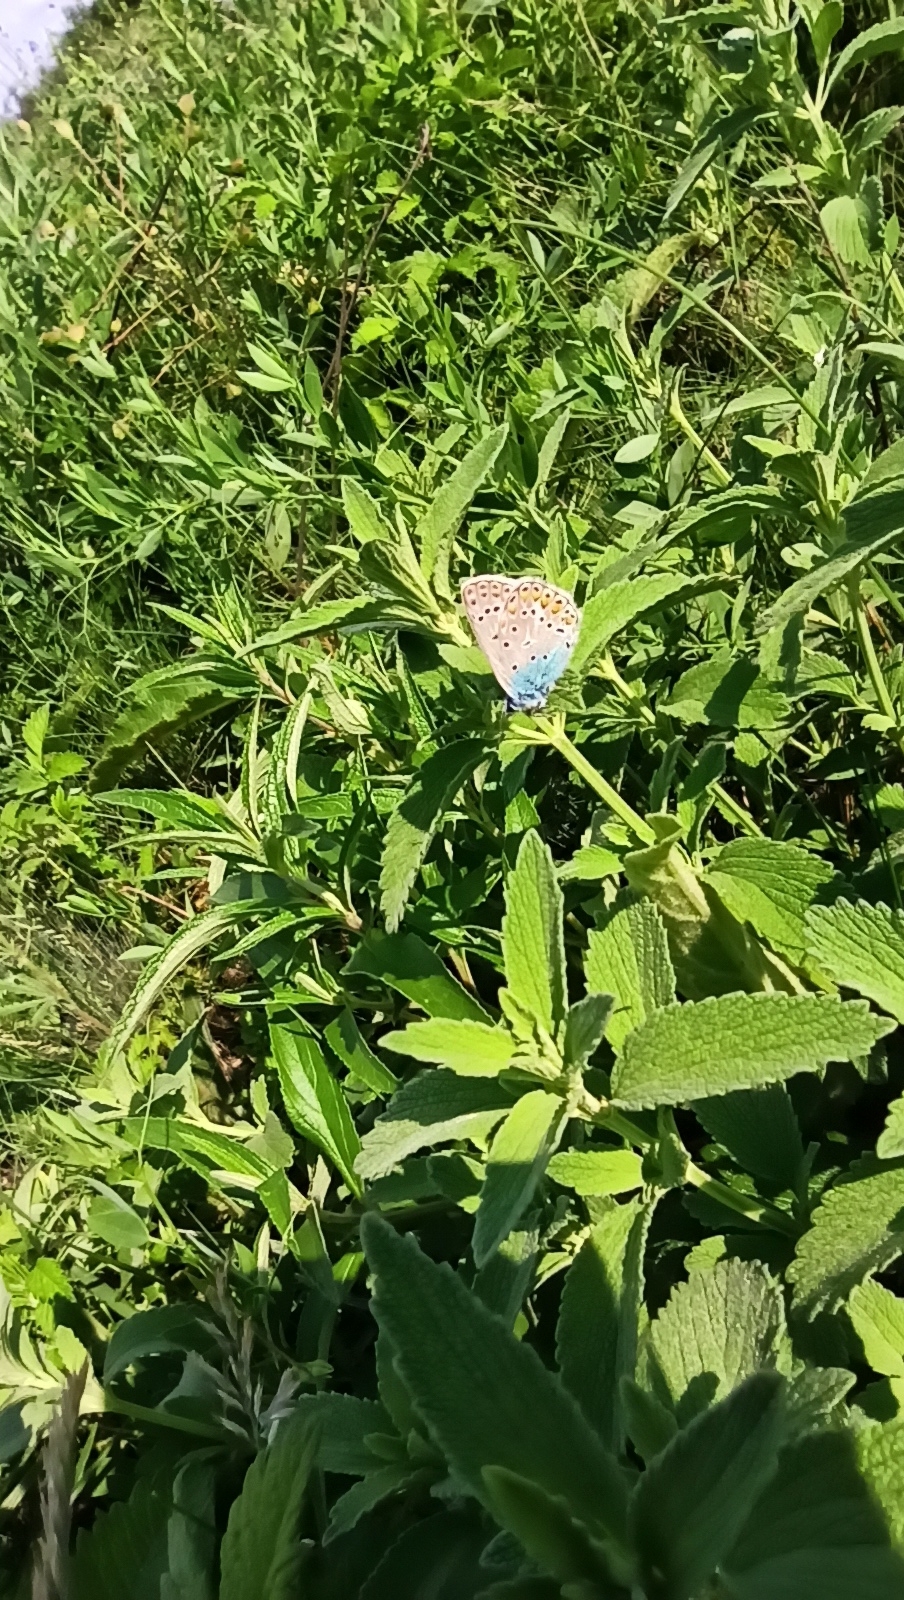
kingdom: Animalia
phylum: Arthropoda
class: Insecta
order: Lepidoptera
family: Lycaenidae
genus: Polyommatus
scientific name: Polyommatus icarus
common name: Common blue
